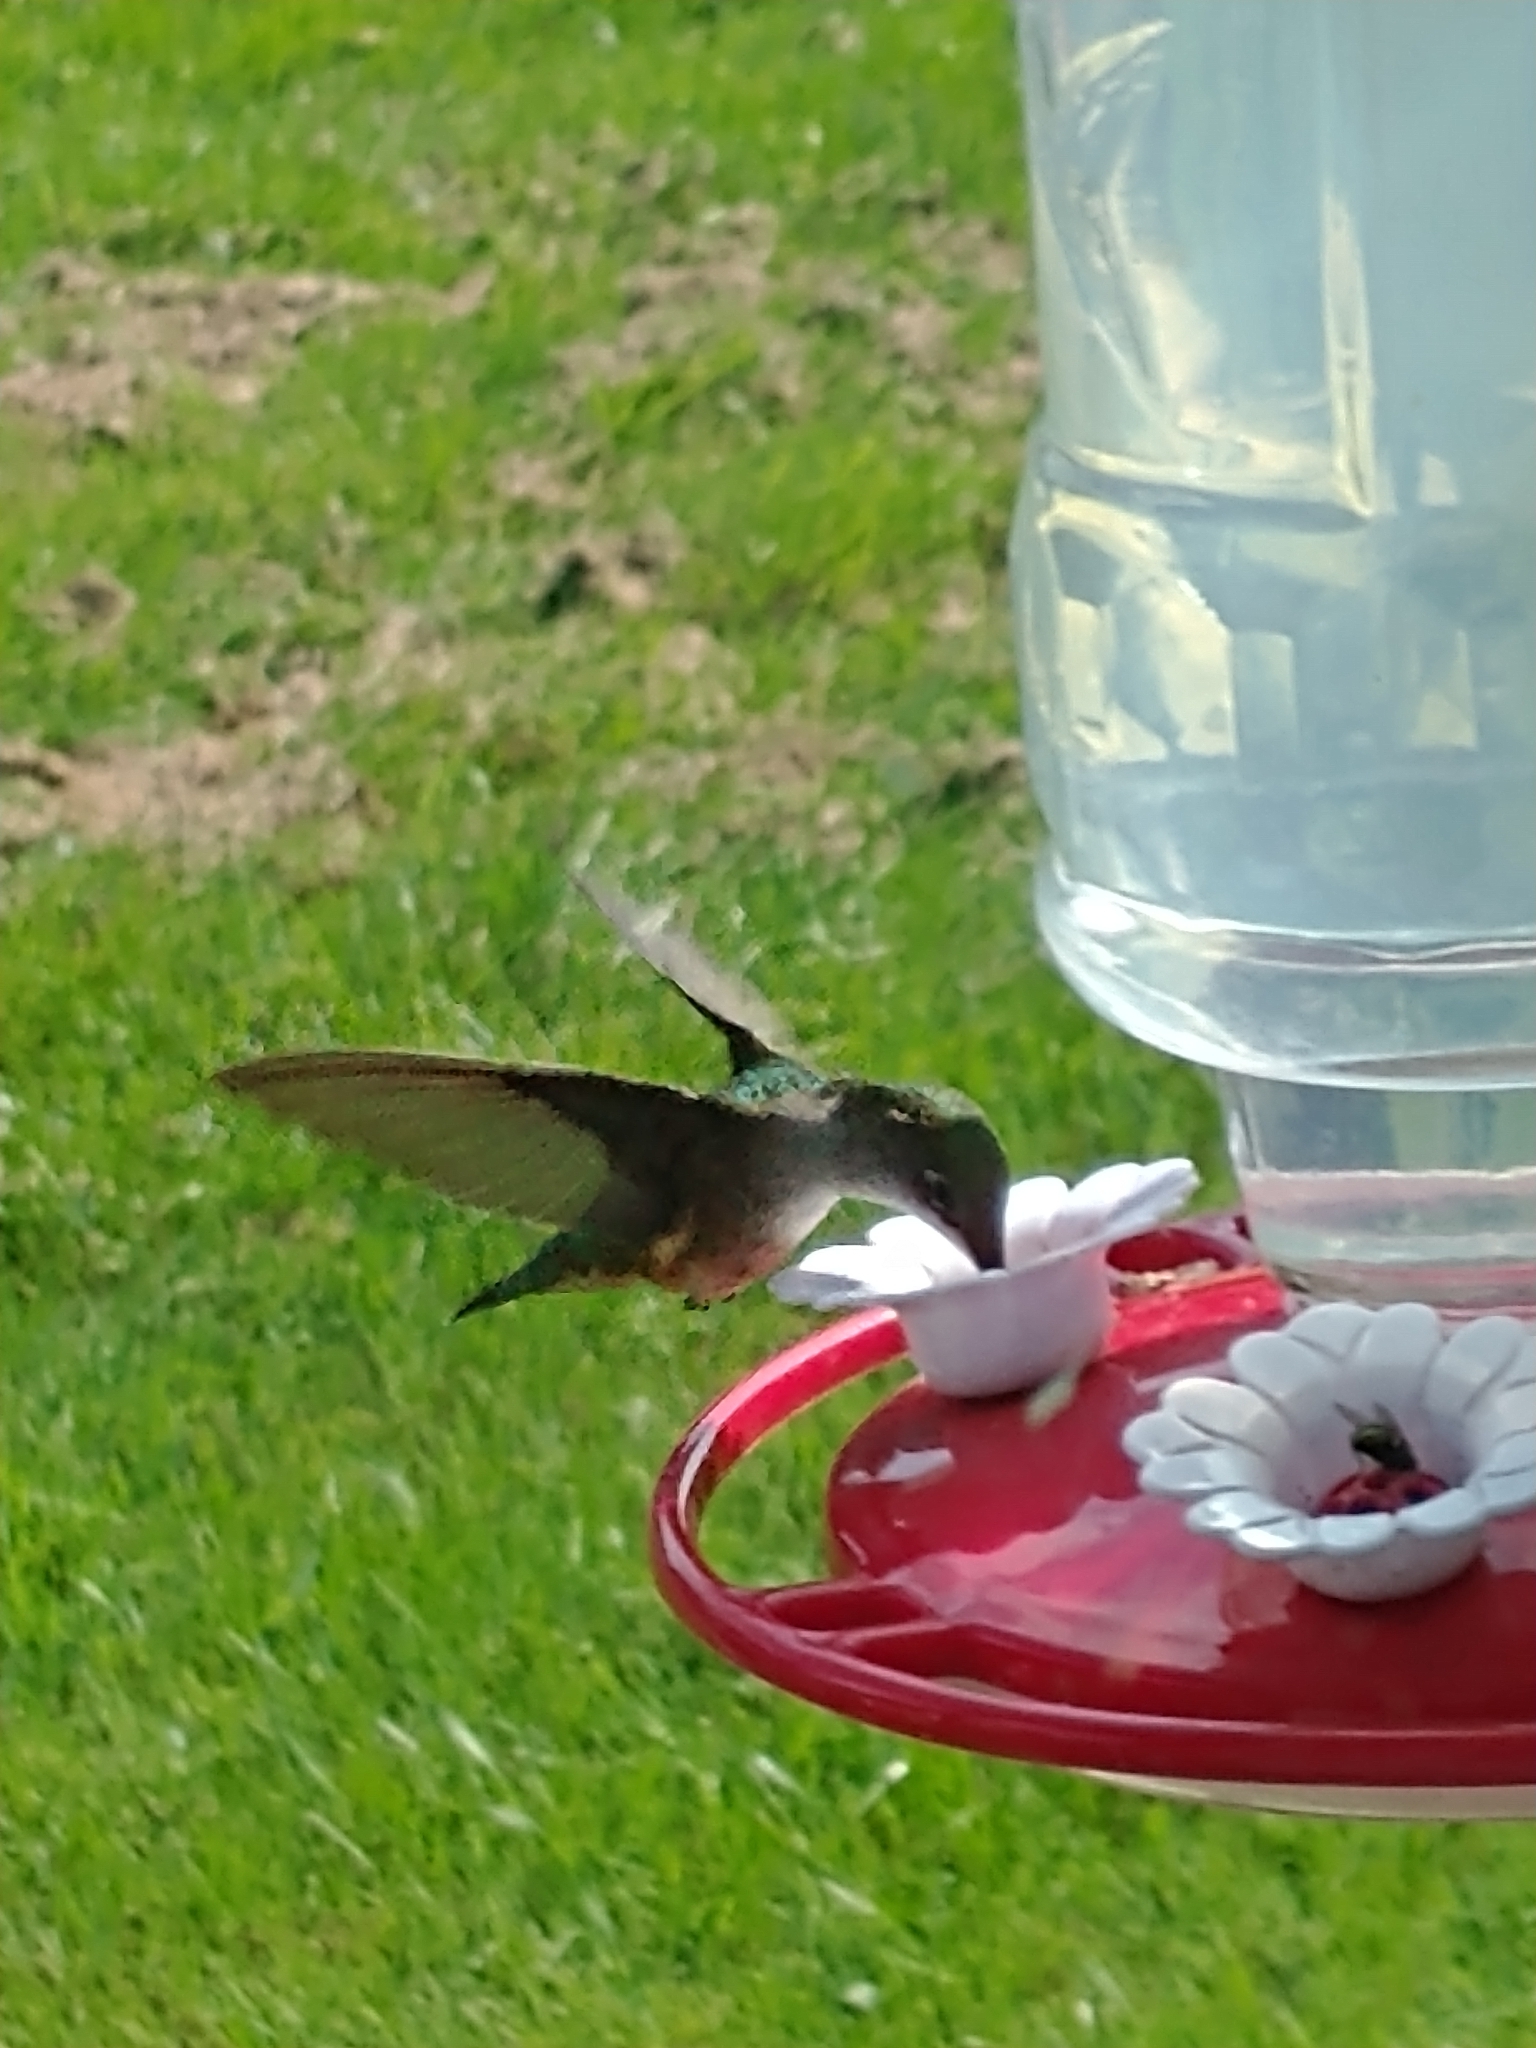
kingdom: Animalia
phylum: Chordata
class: Aves
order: Apodiformes
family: Trochilidae
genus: Archilochus
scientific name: Archilochus colubris
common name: Ruby-throated hummingbird
